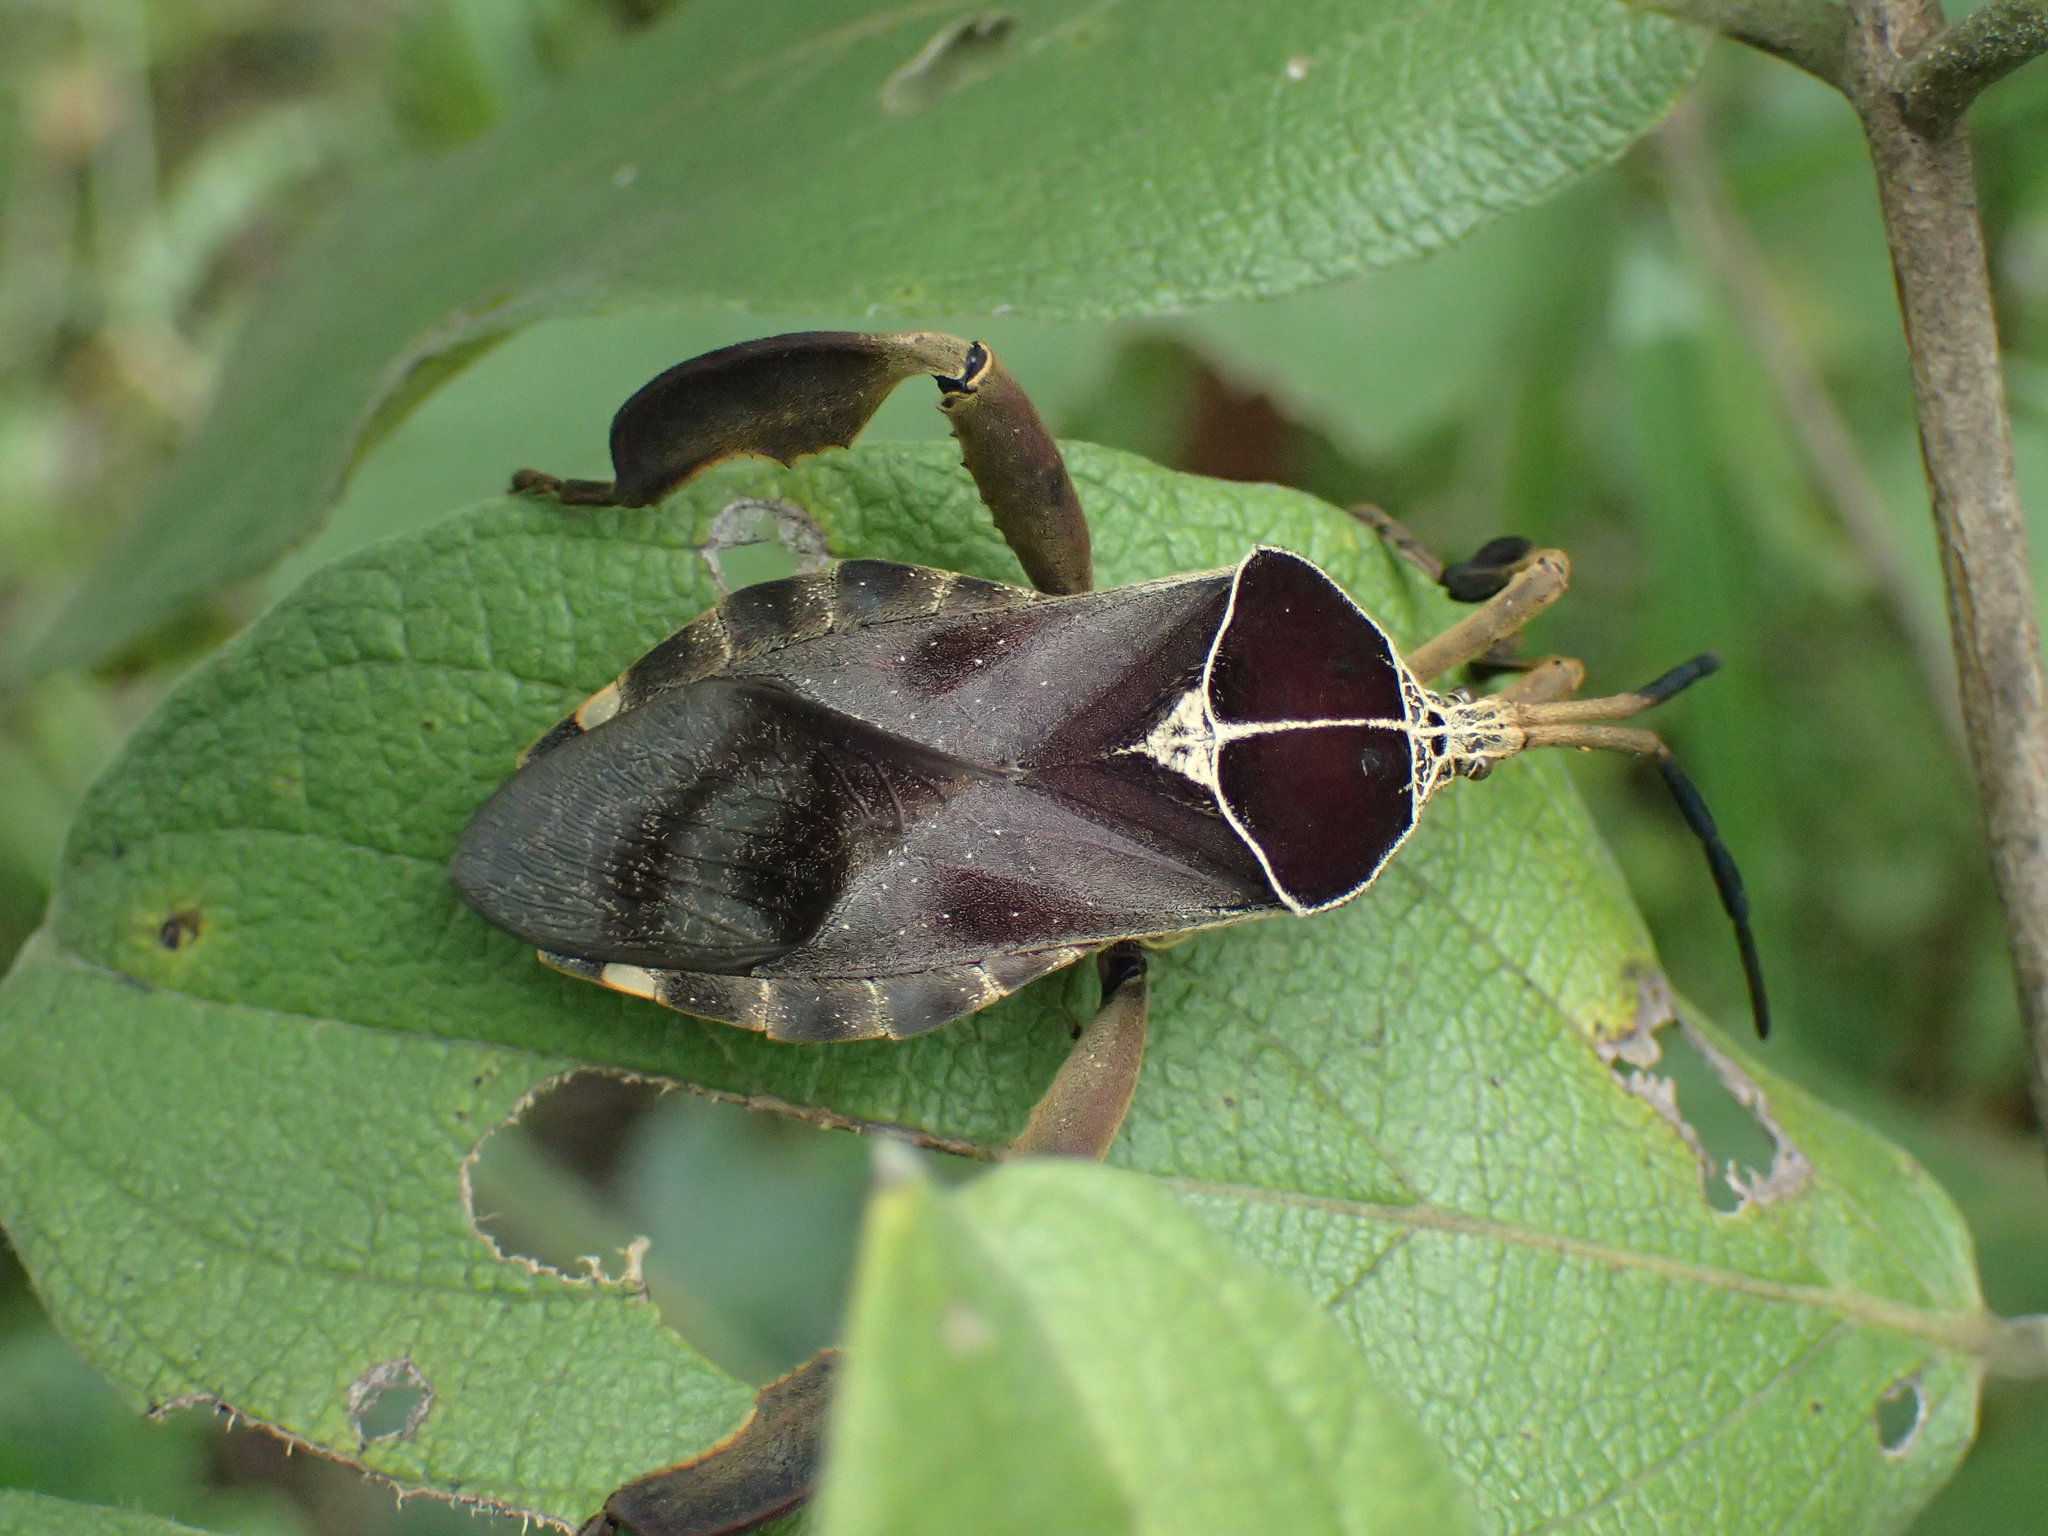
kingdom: Animalia
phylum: Arthropoda
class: Insecta
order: Hemiptera
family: Coreidae
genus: Petascelis
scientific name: Petascelis remipes
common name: Giant twig wilter
